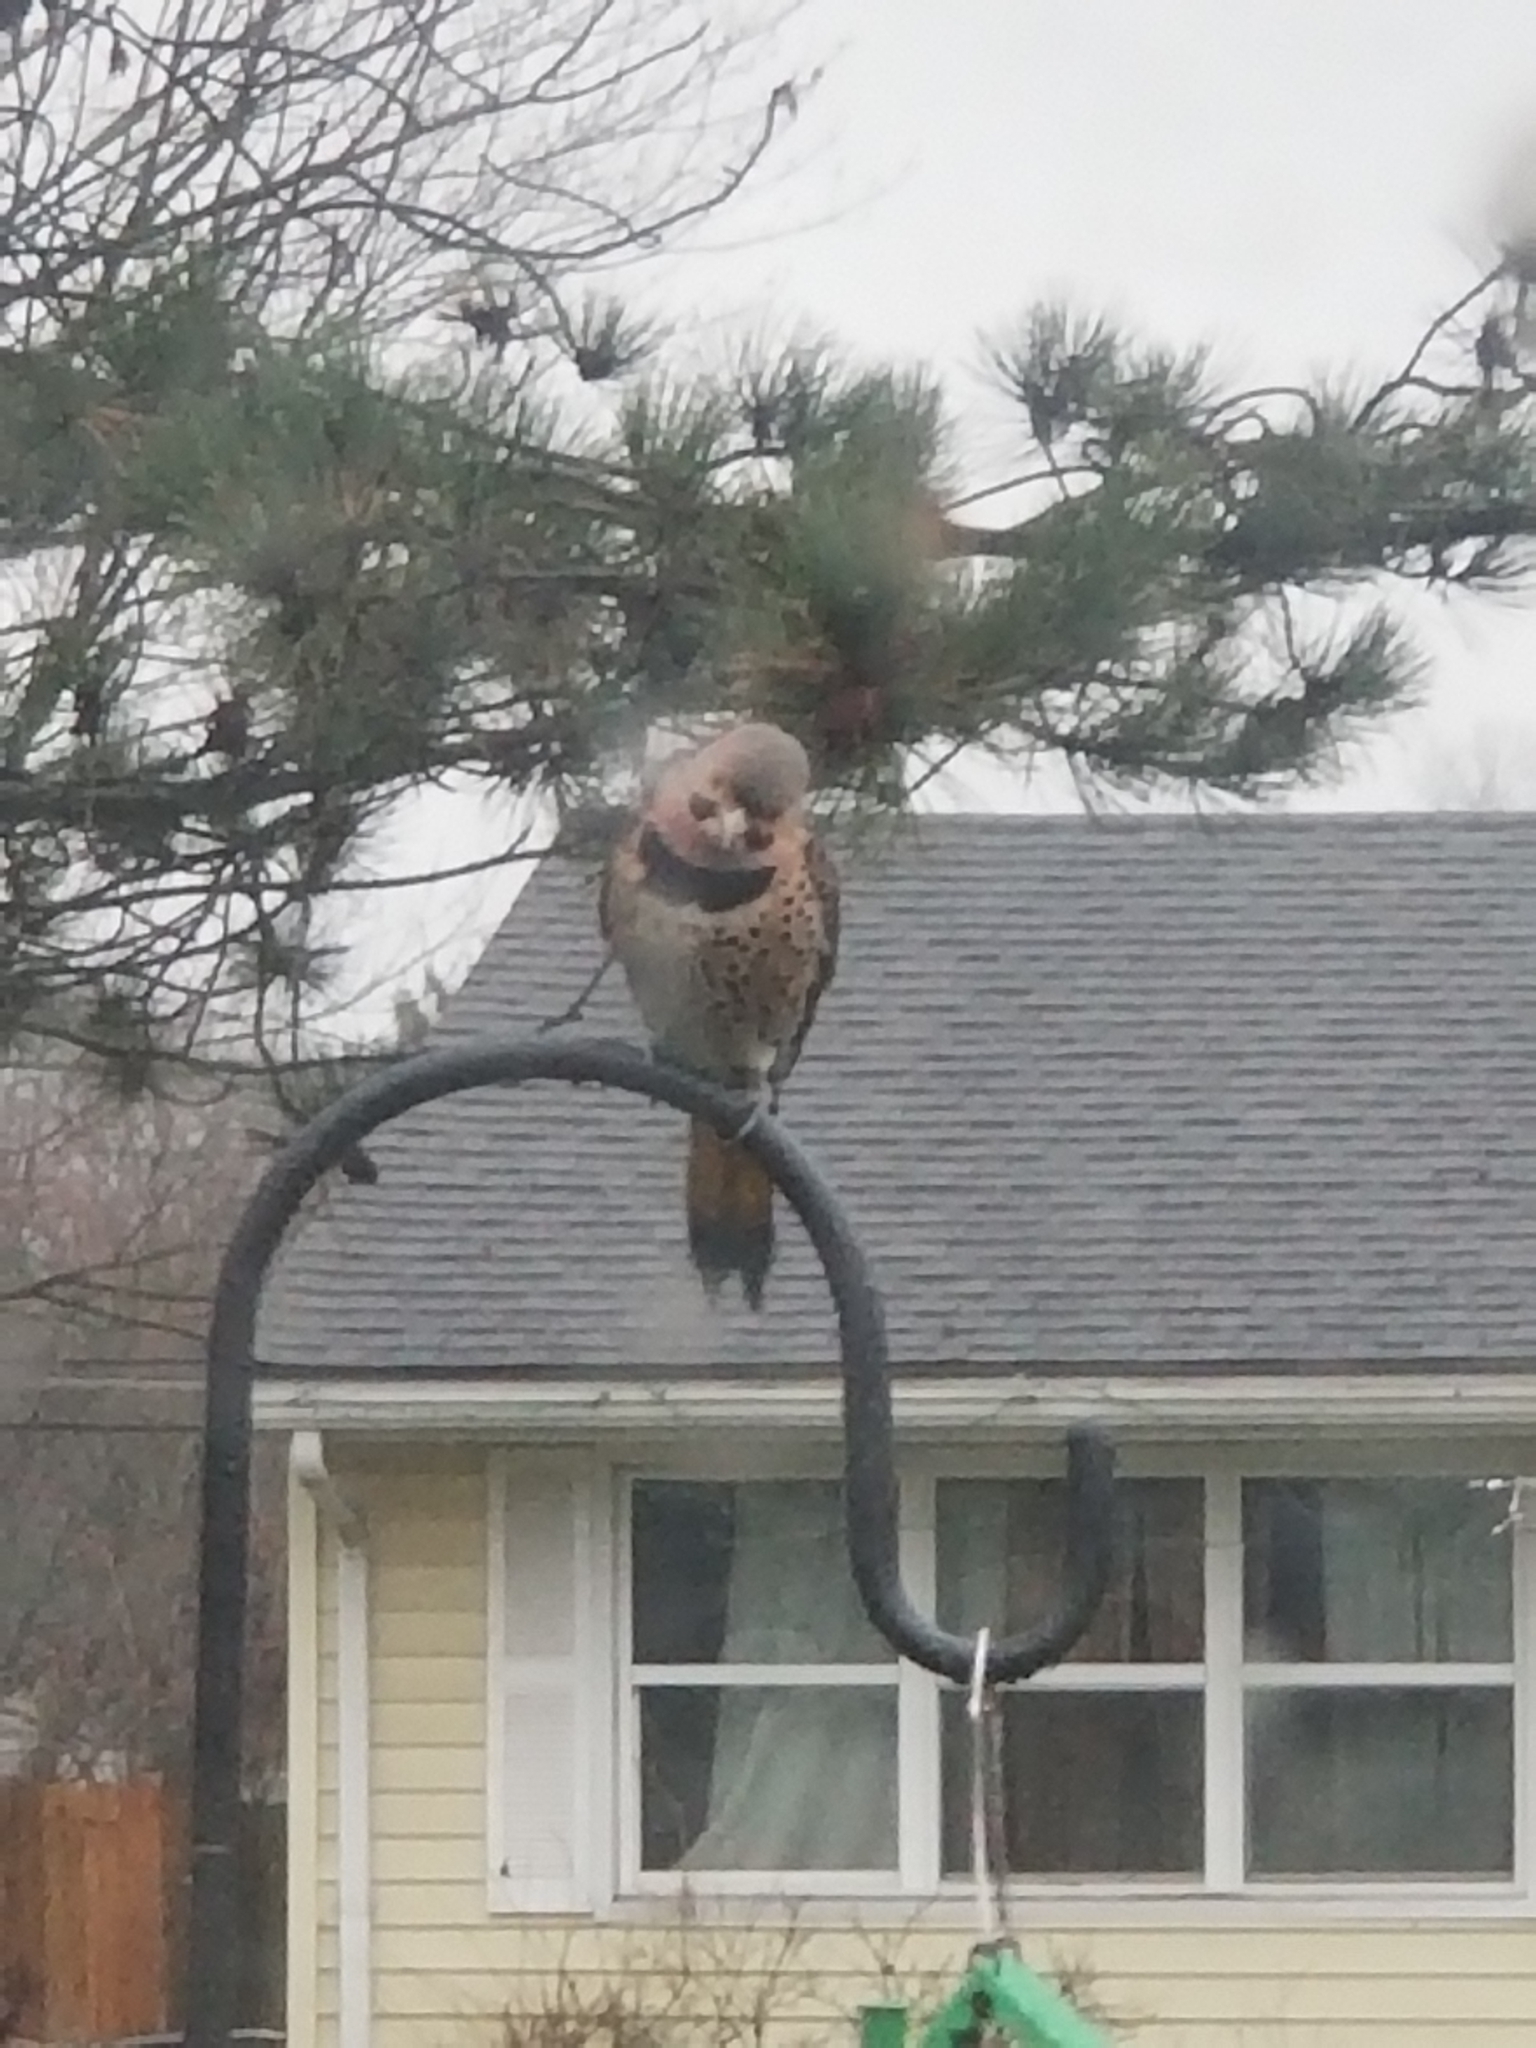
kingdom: Animalia
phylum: Chordata
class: Aves
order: Piciformes
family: Picidae
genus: Colaptes
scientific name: Colaptes auratus
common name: Northern flicker
